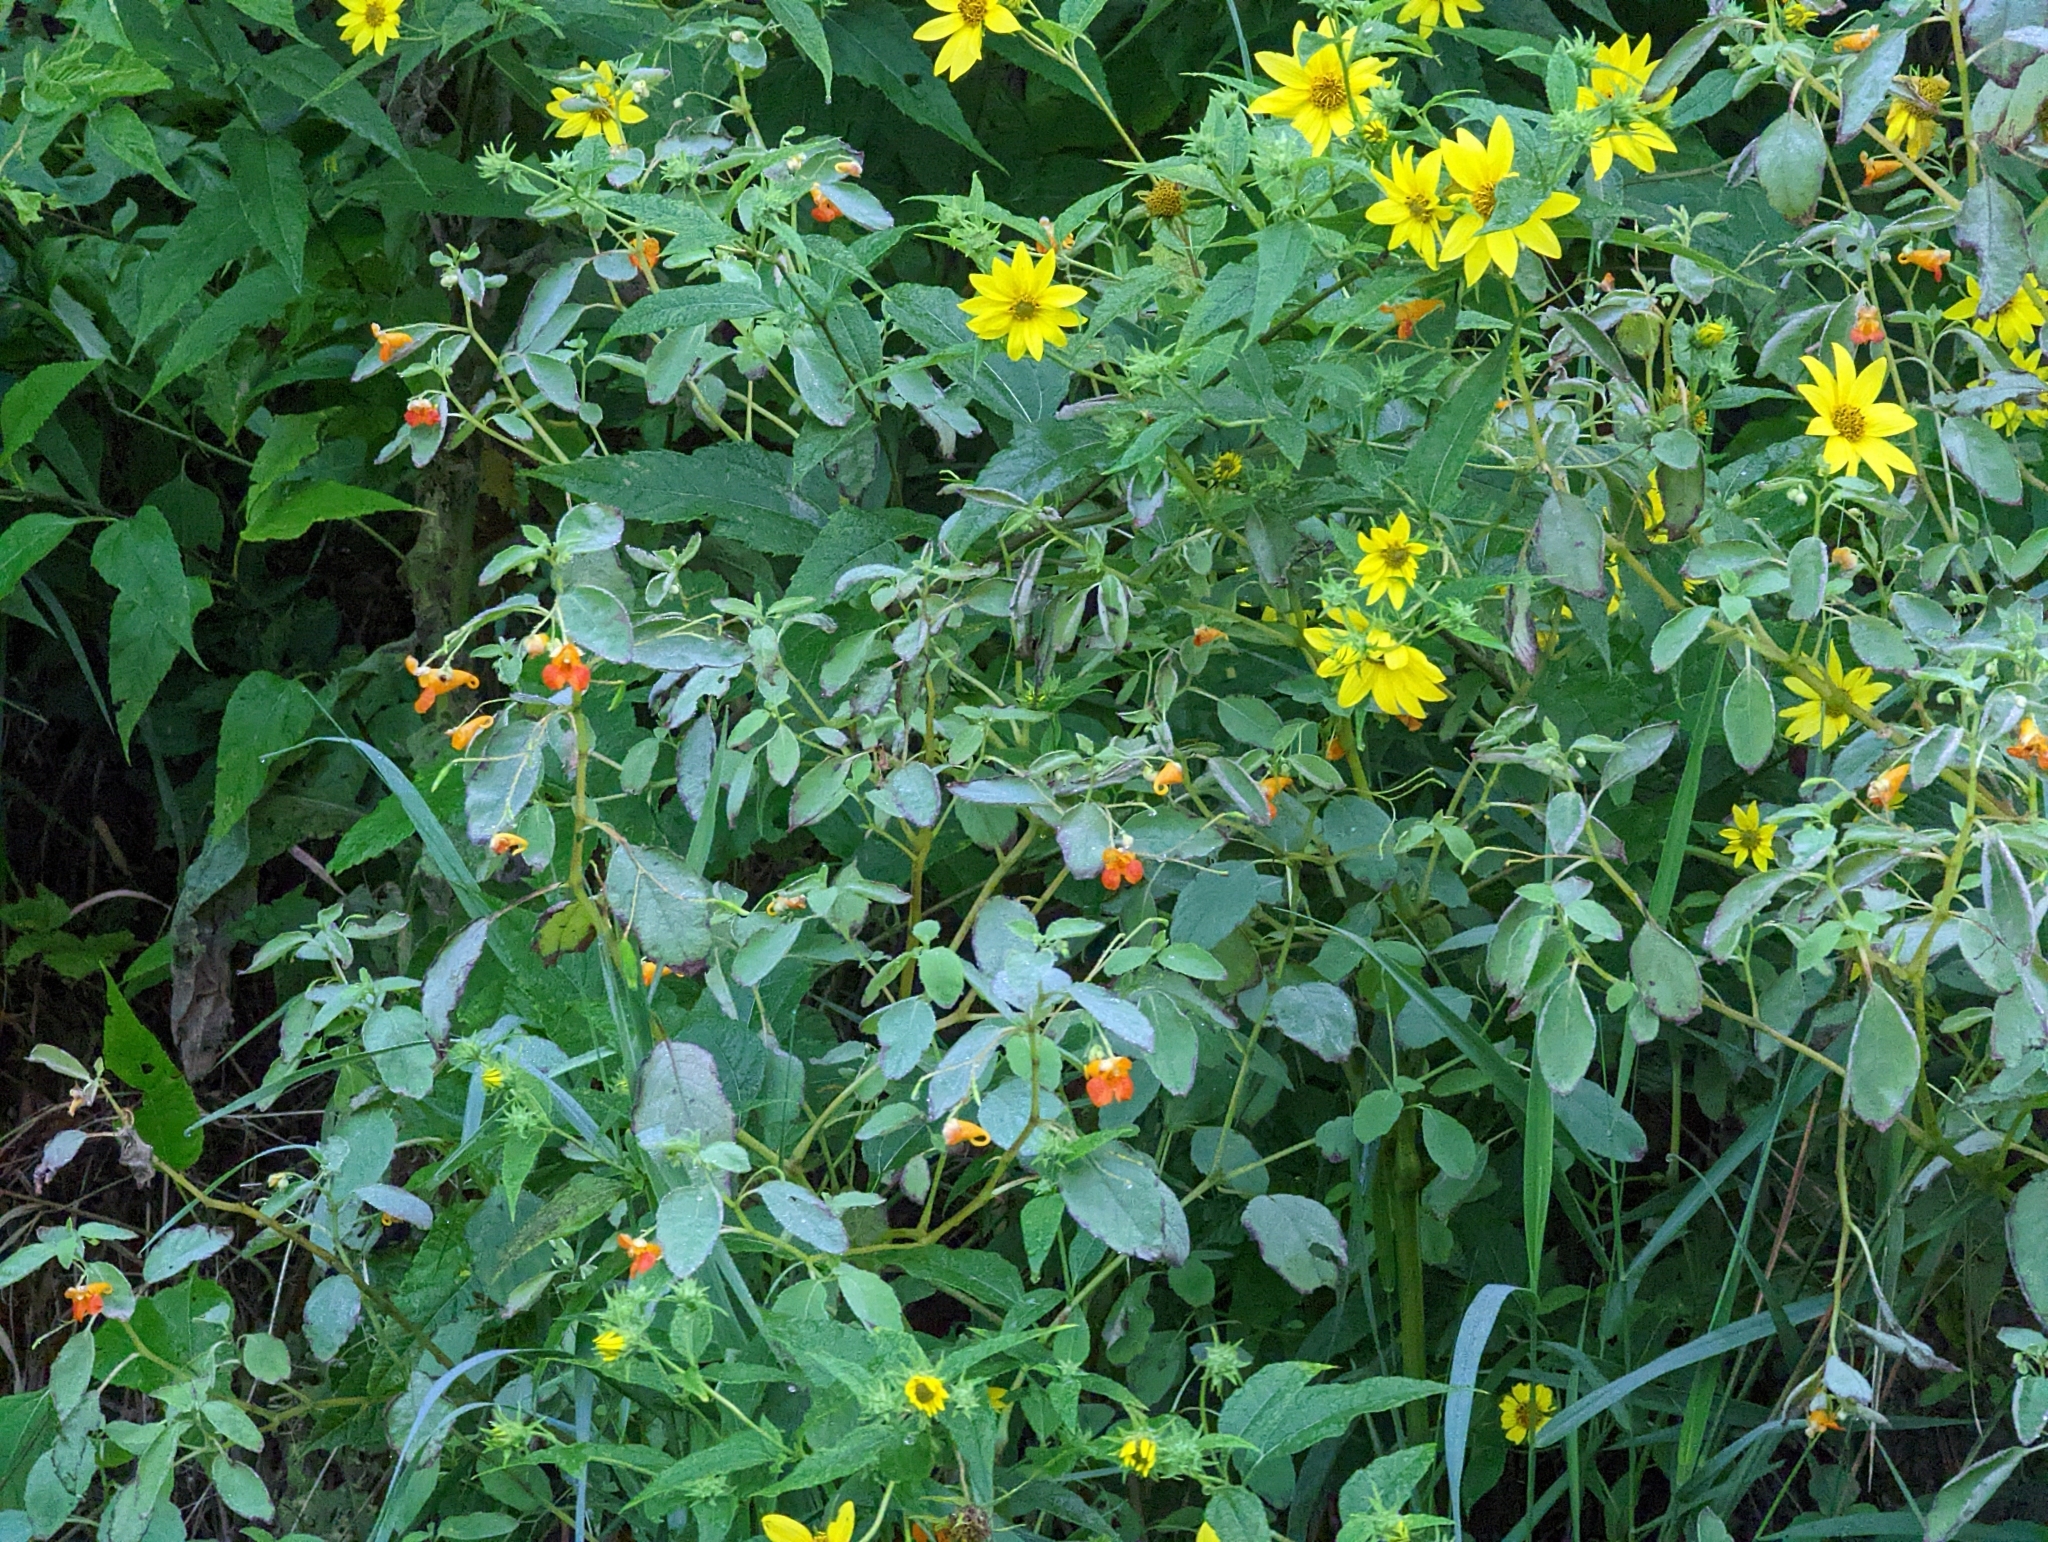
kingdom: Plantae
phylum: Tracheophyta
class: Magnoliopsida
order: Ericales
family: Balsaminaceae
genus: Impatiens
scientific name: Impatiens capensis
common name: Orange balsam
